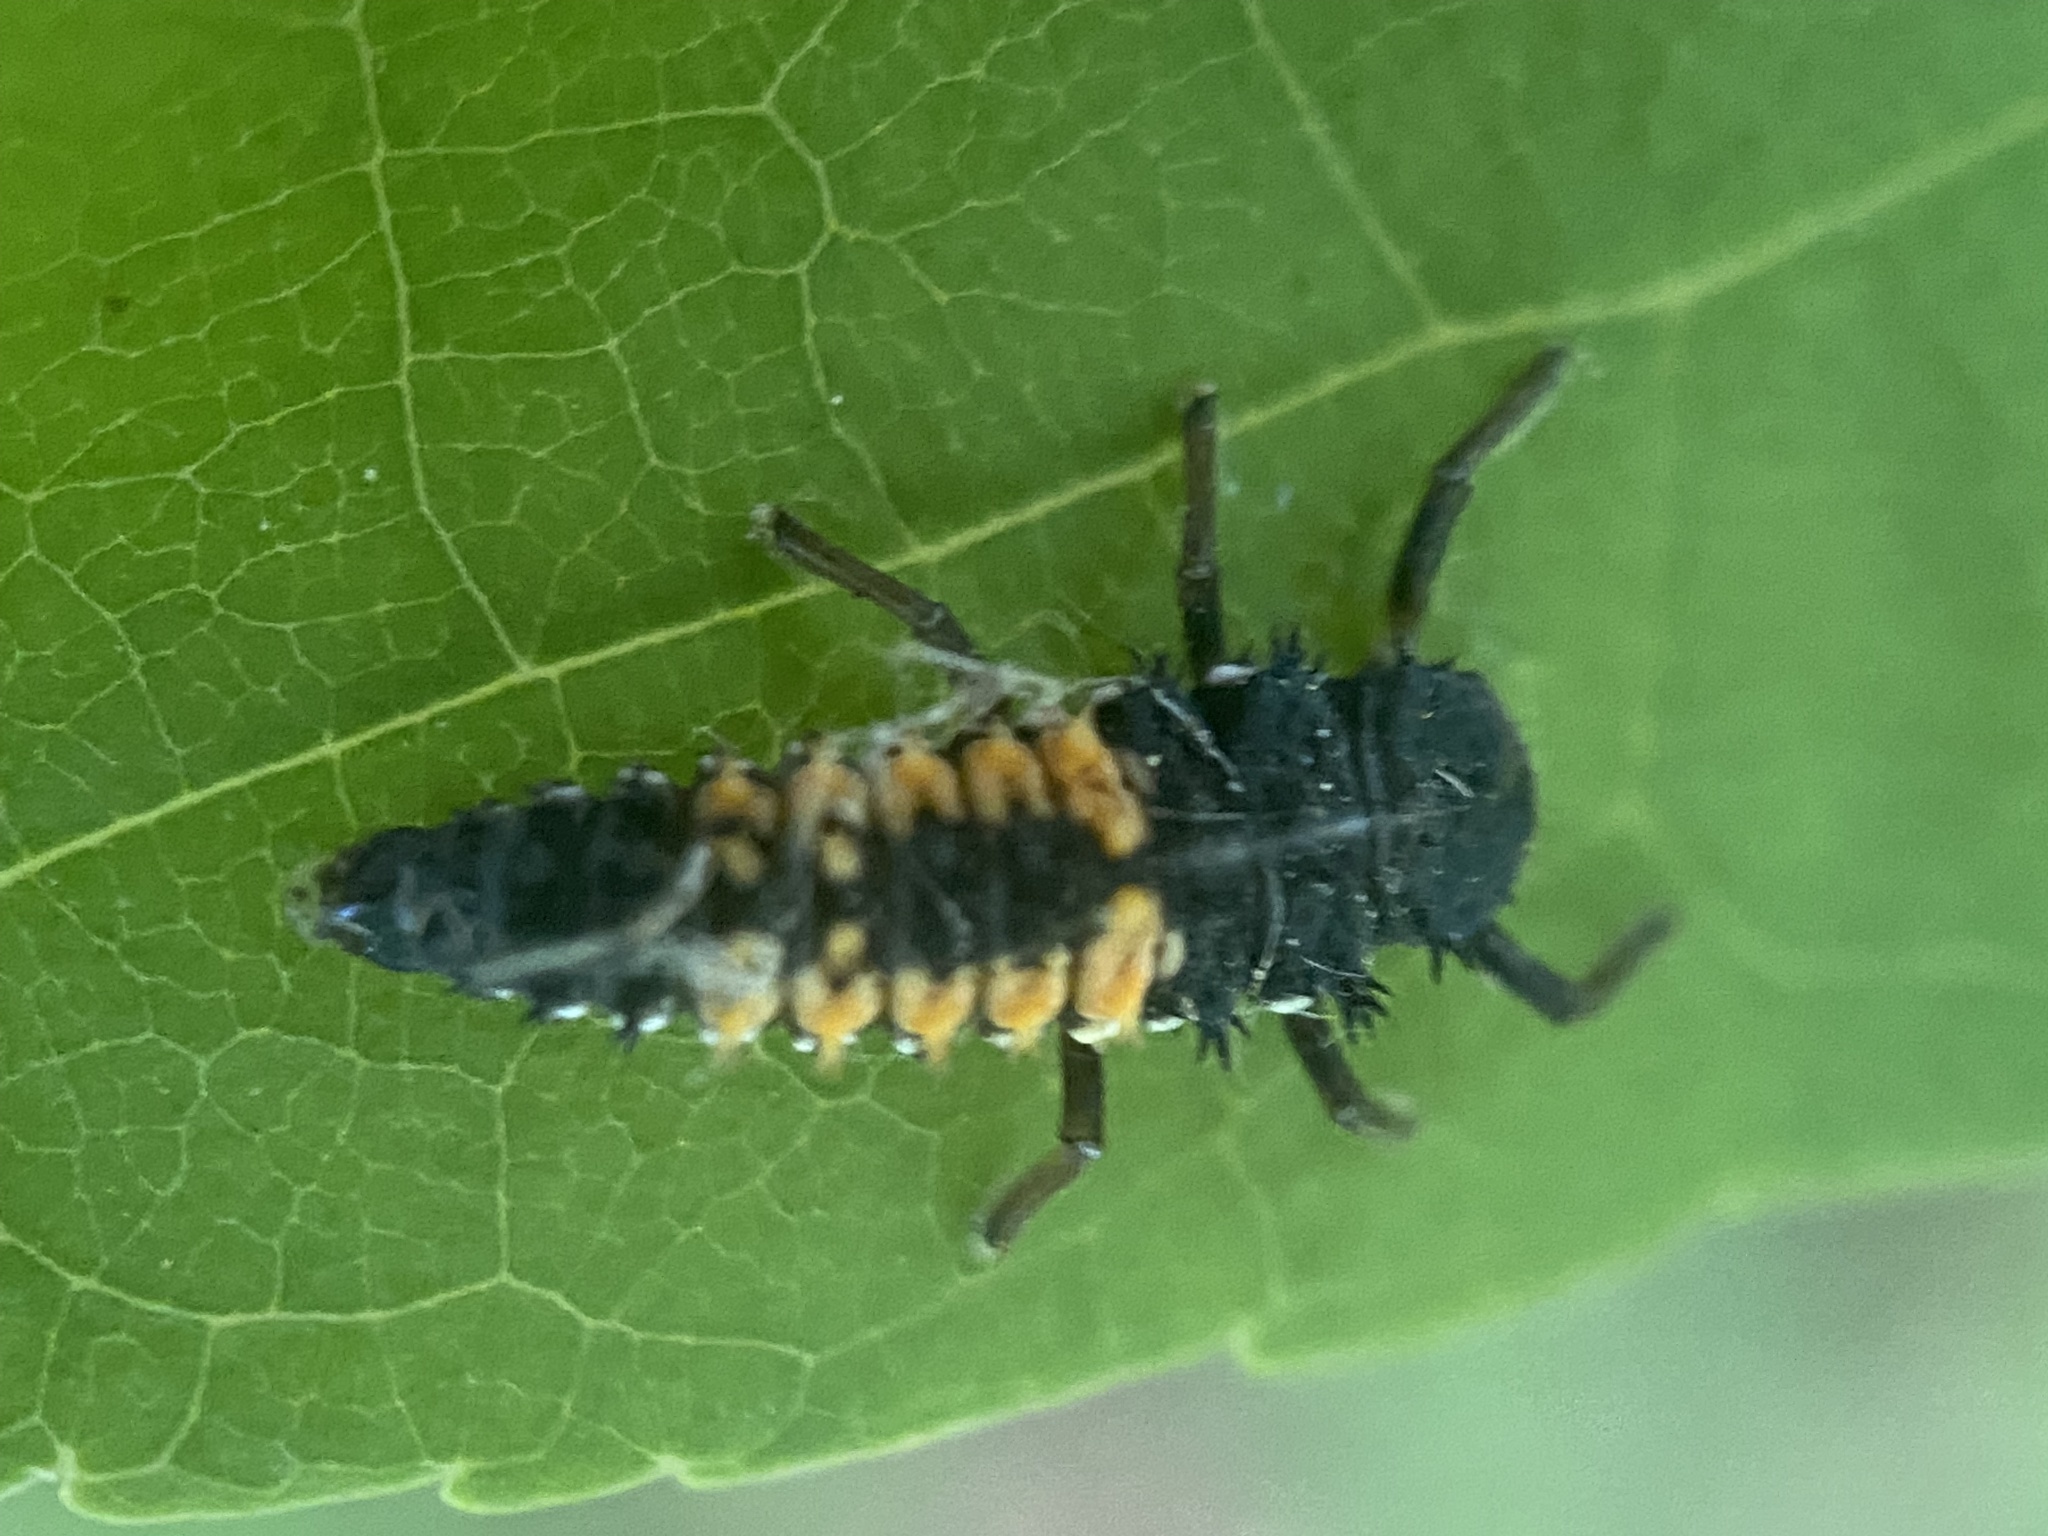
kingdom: Animalia
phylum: Arthropoda
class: Insecta
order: Coleoptera
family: Coccinellidae
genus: Harmonia
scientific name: Harmonia axyridis
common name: Harlequin ladybird
